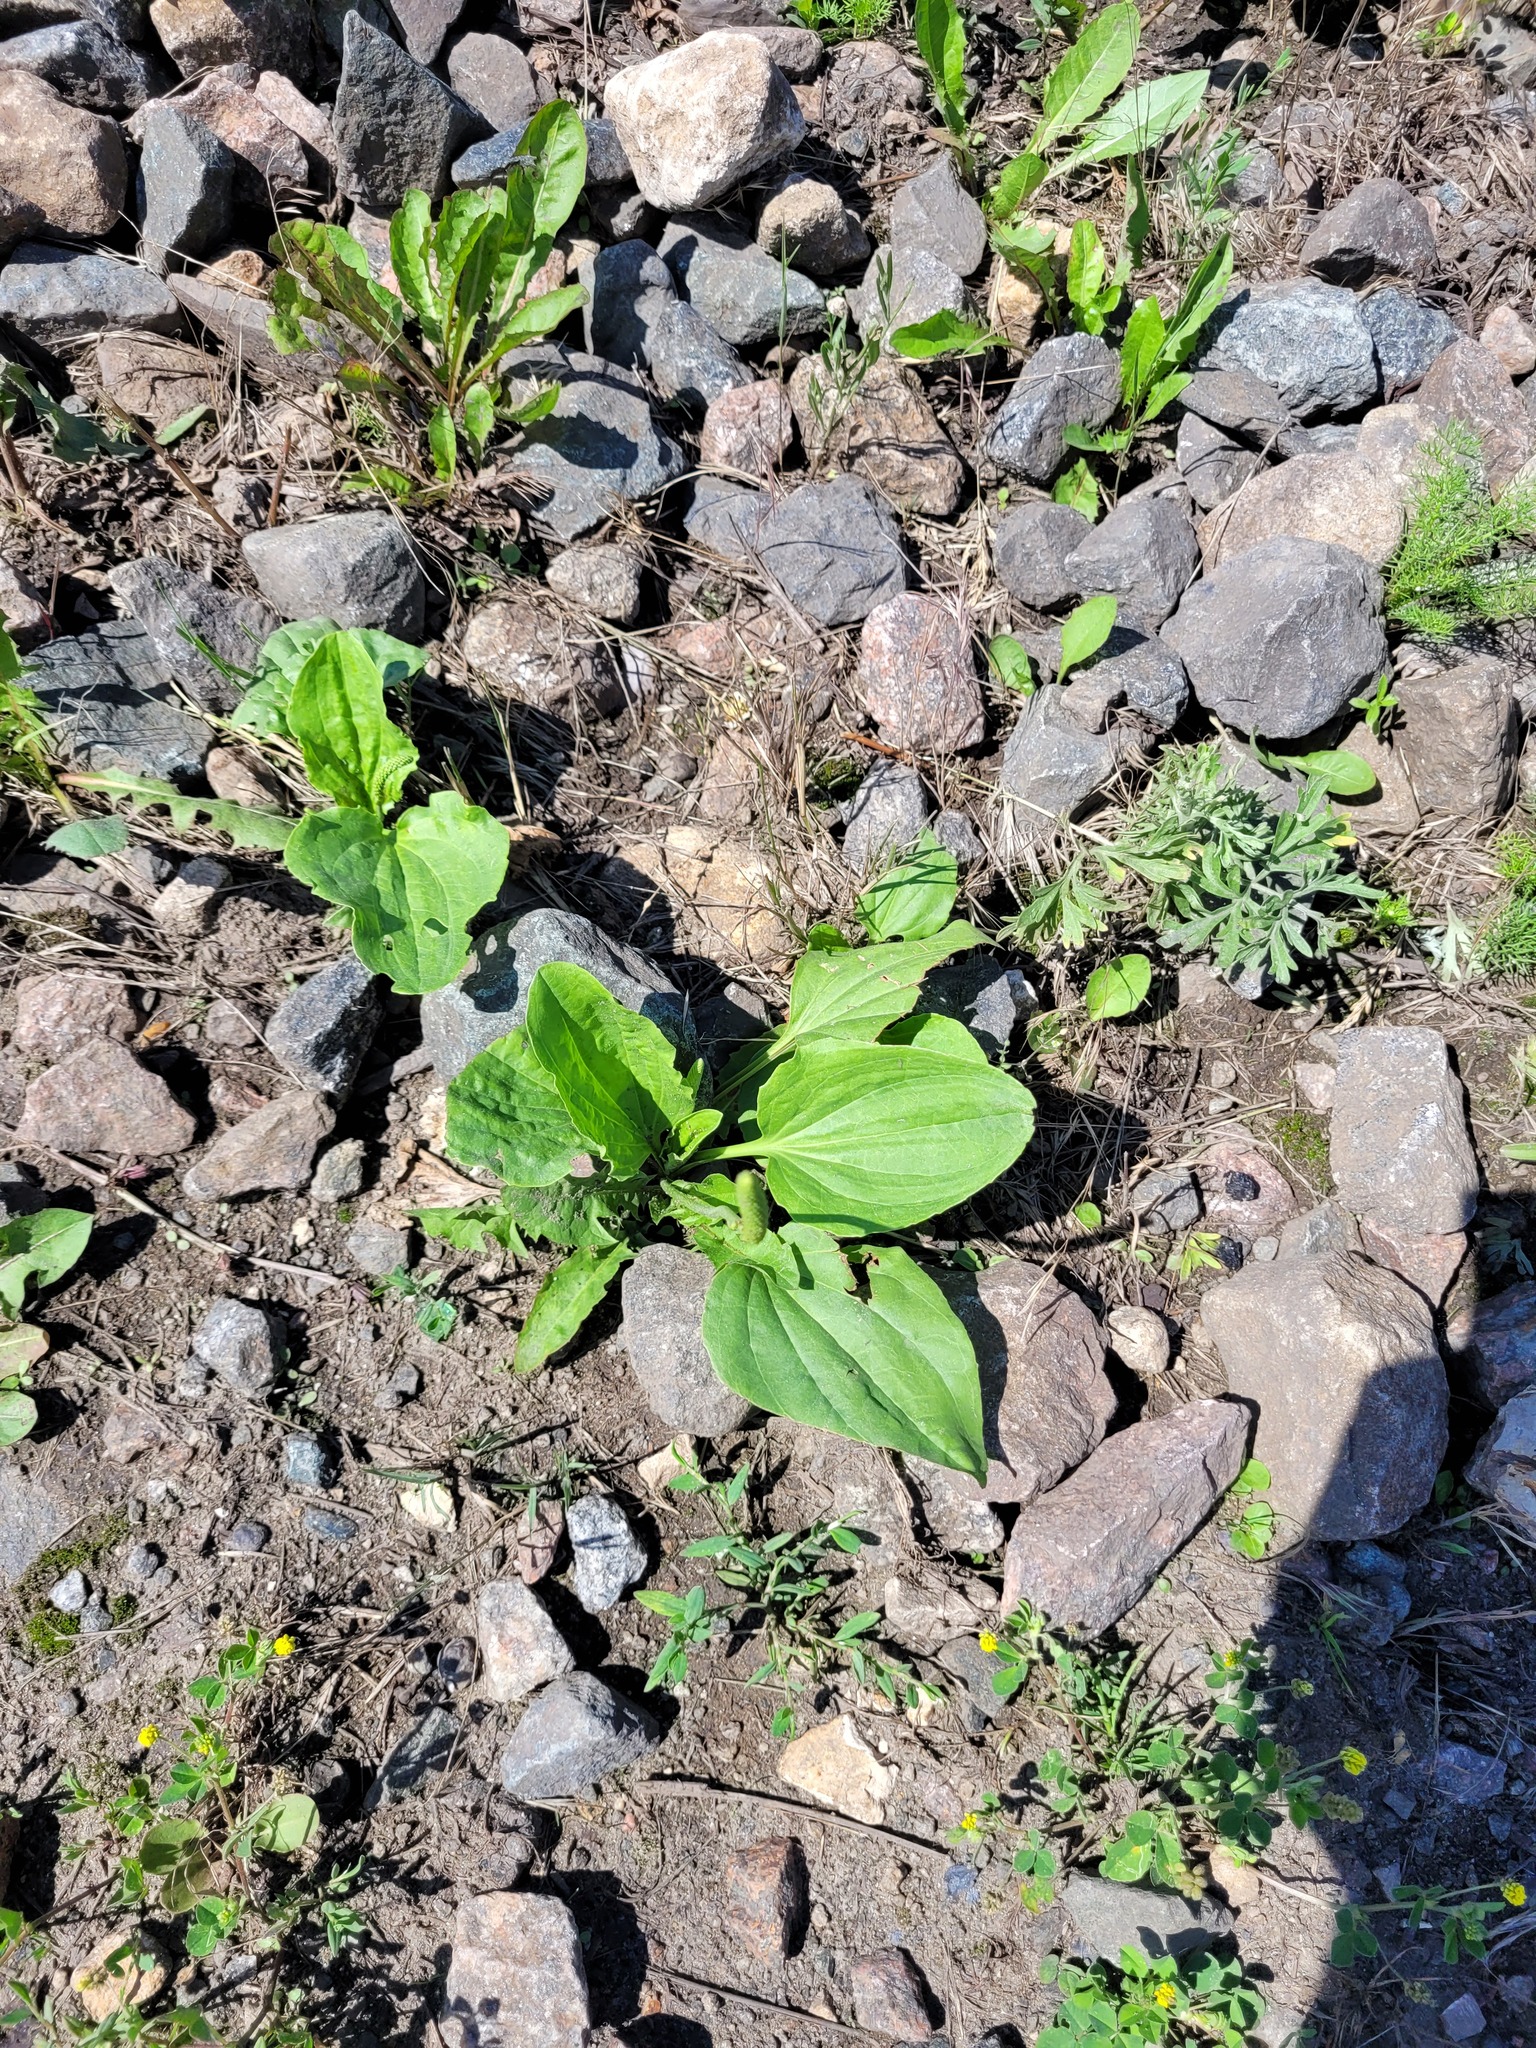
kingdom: Plantae
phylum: Tracheophyta
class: Magnoliopsida
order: Lamiales
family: Plantaginaceae
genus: Plantago
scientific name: Plantago major
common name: Common plantain
